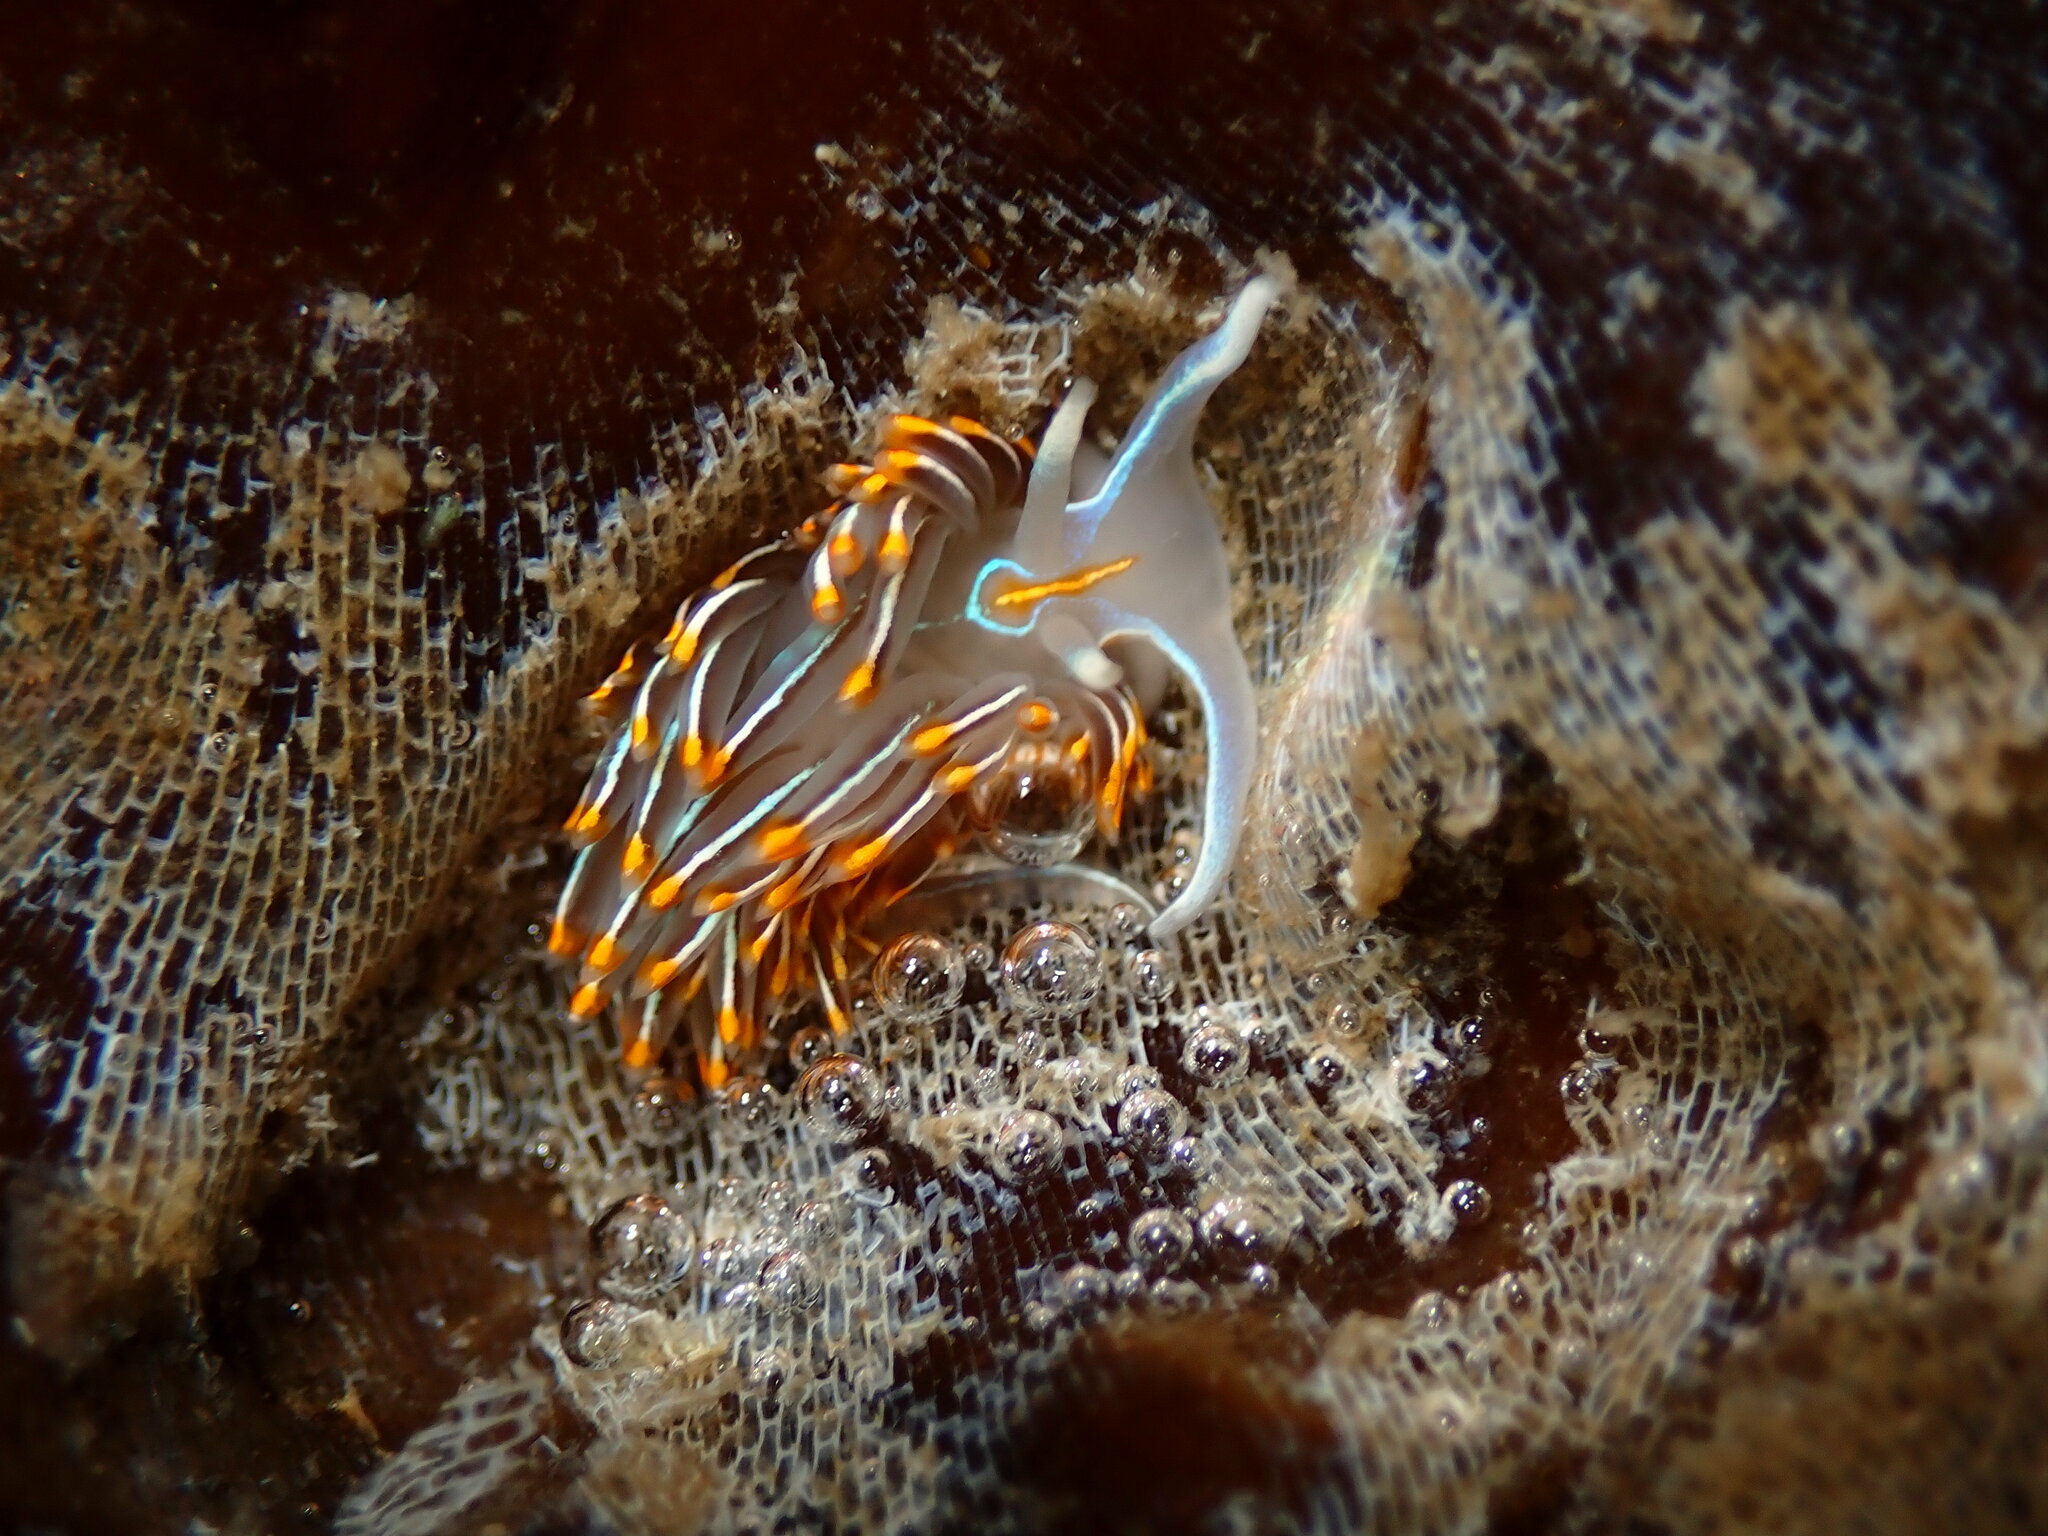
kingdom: Animalia
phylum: Mollusca
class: Gastropoda
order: Nudibranchia
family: Myrrhinidae
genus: Hermissenda
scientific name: Hermissenda crassicornis
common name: Hermissenda
